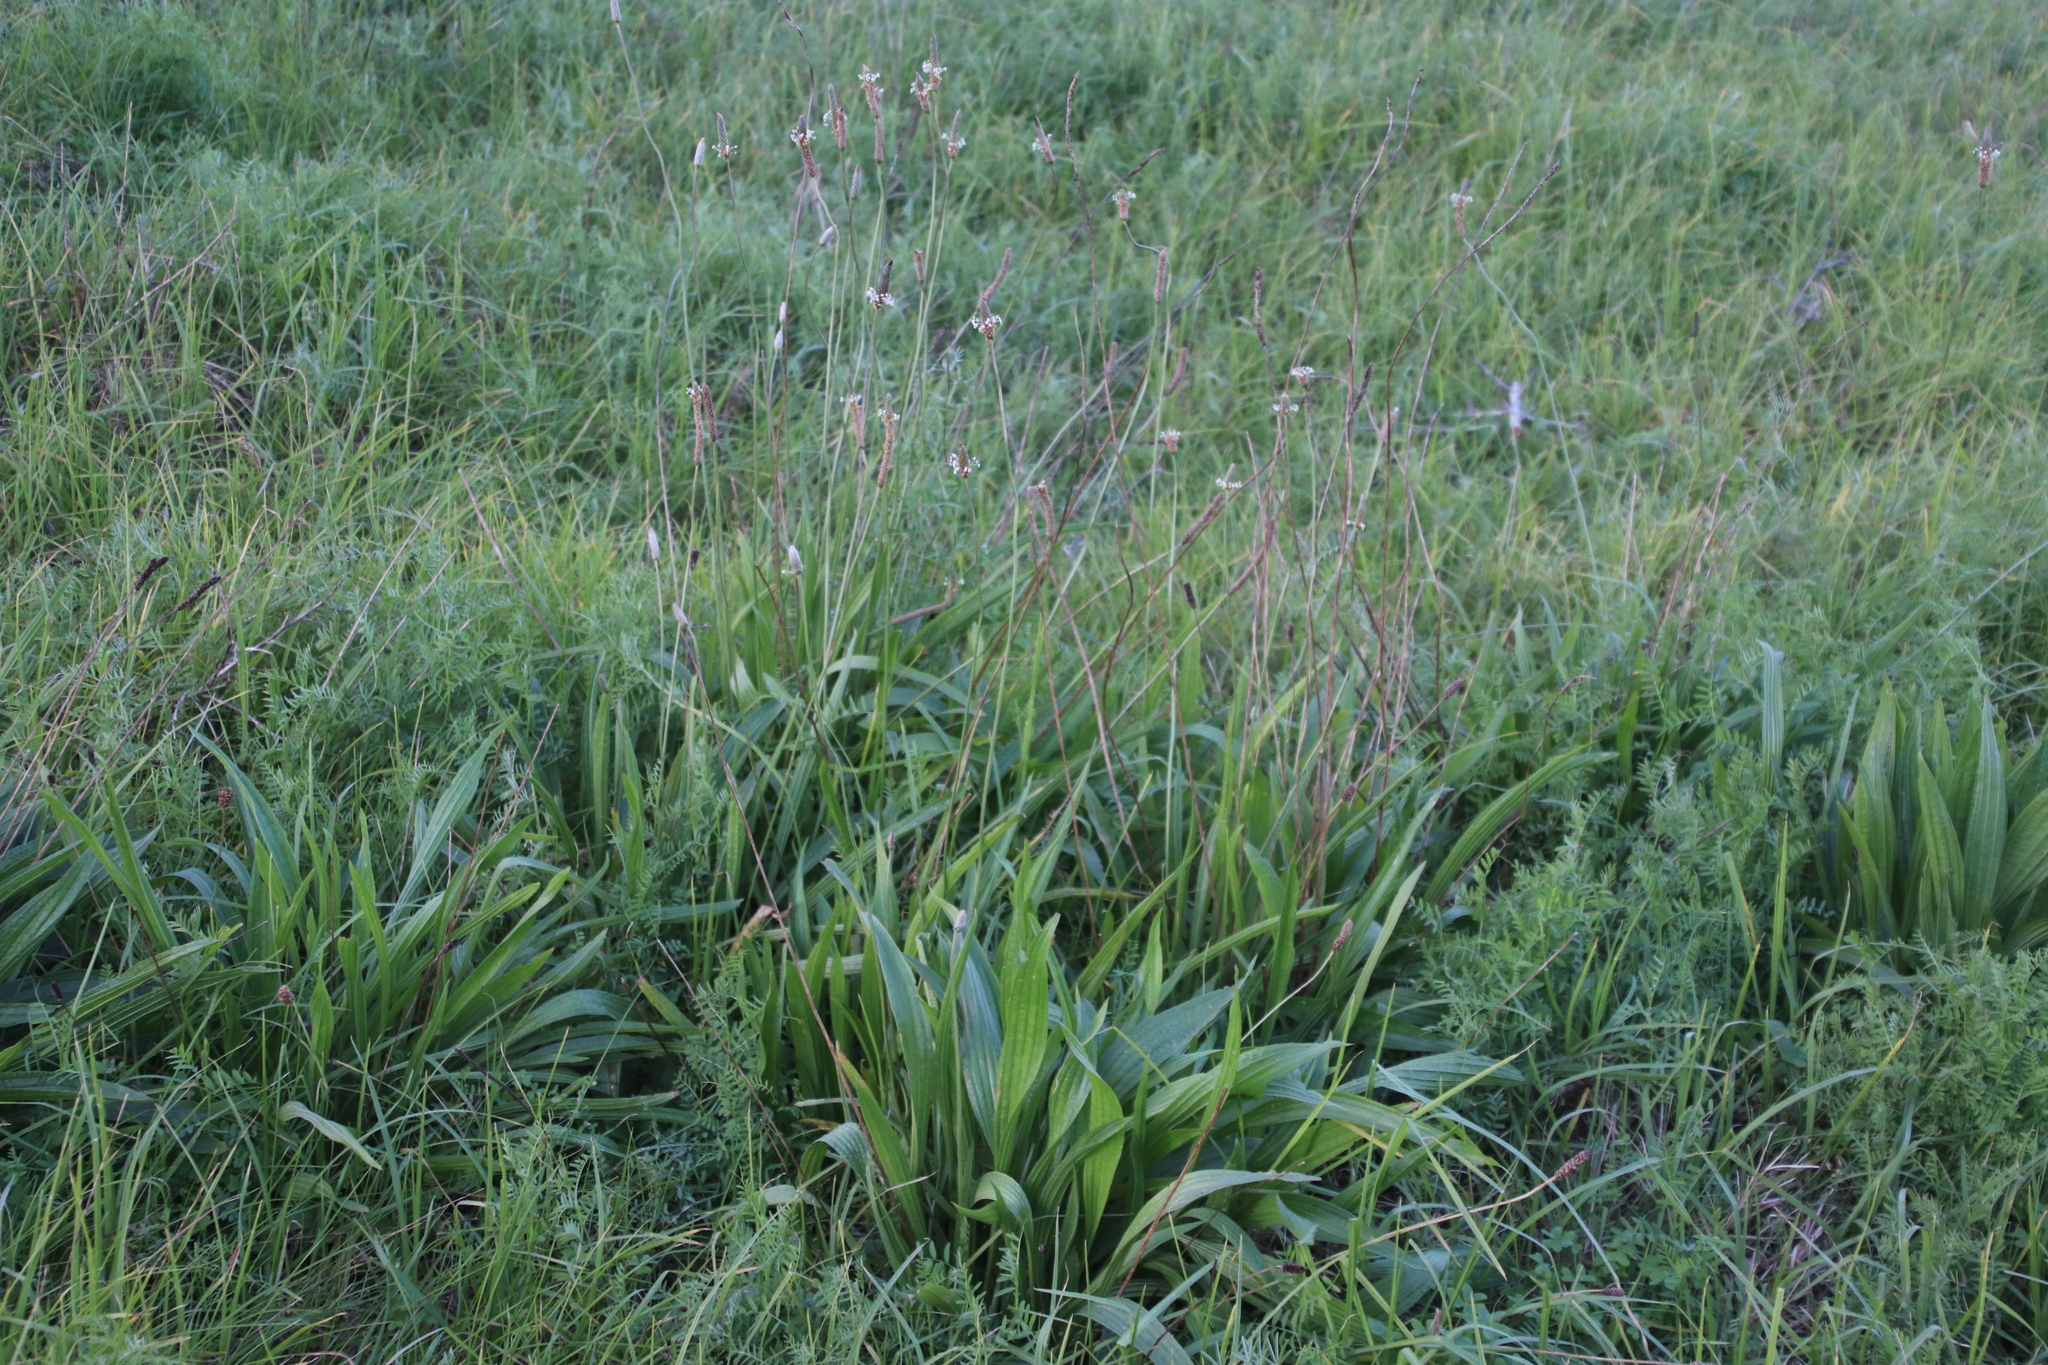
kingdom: Plantae
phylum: Tracheophyta
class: Magnoliopsida
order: Lamiales
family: Plantaginaceae
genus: Plantago
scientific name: Plantago lanceolata
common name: Ribwort plantain
